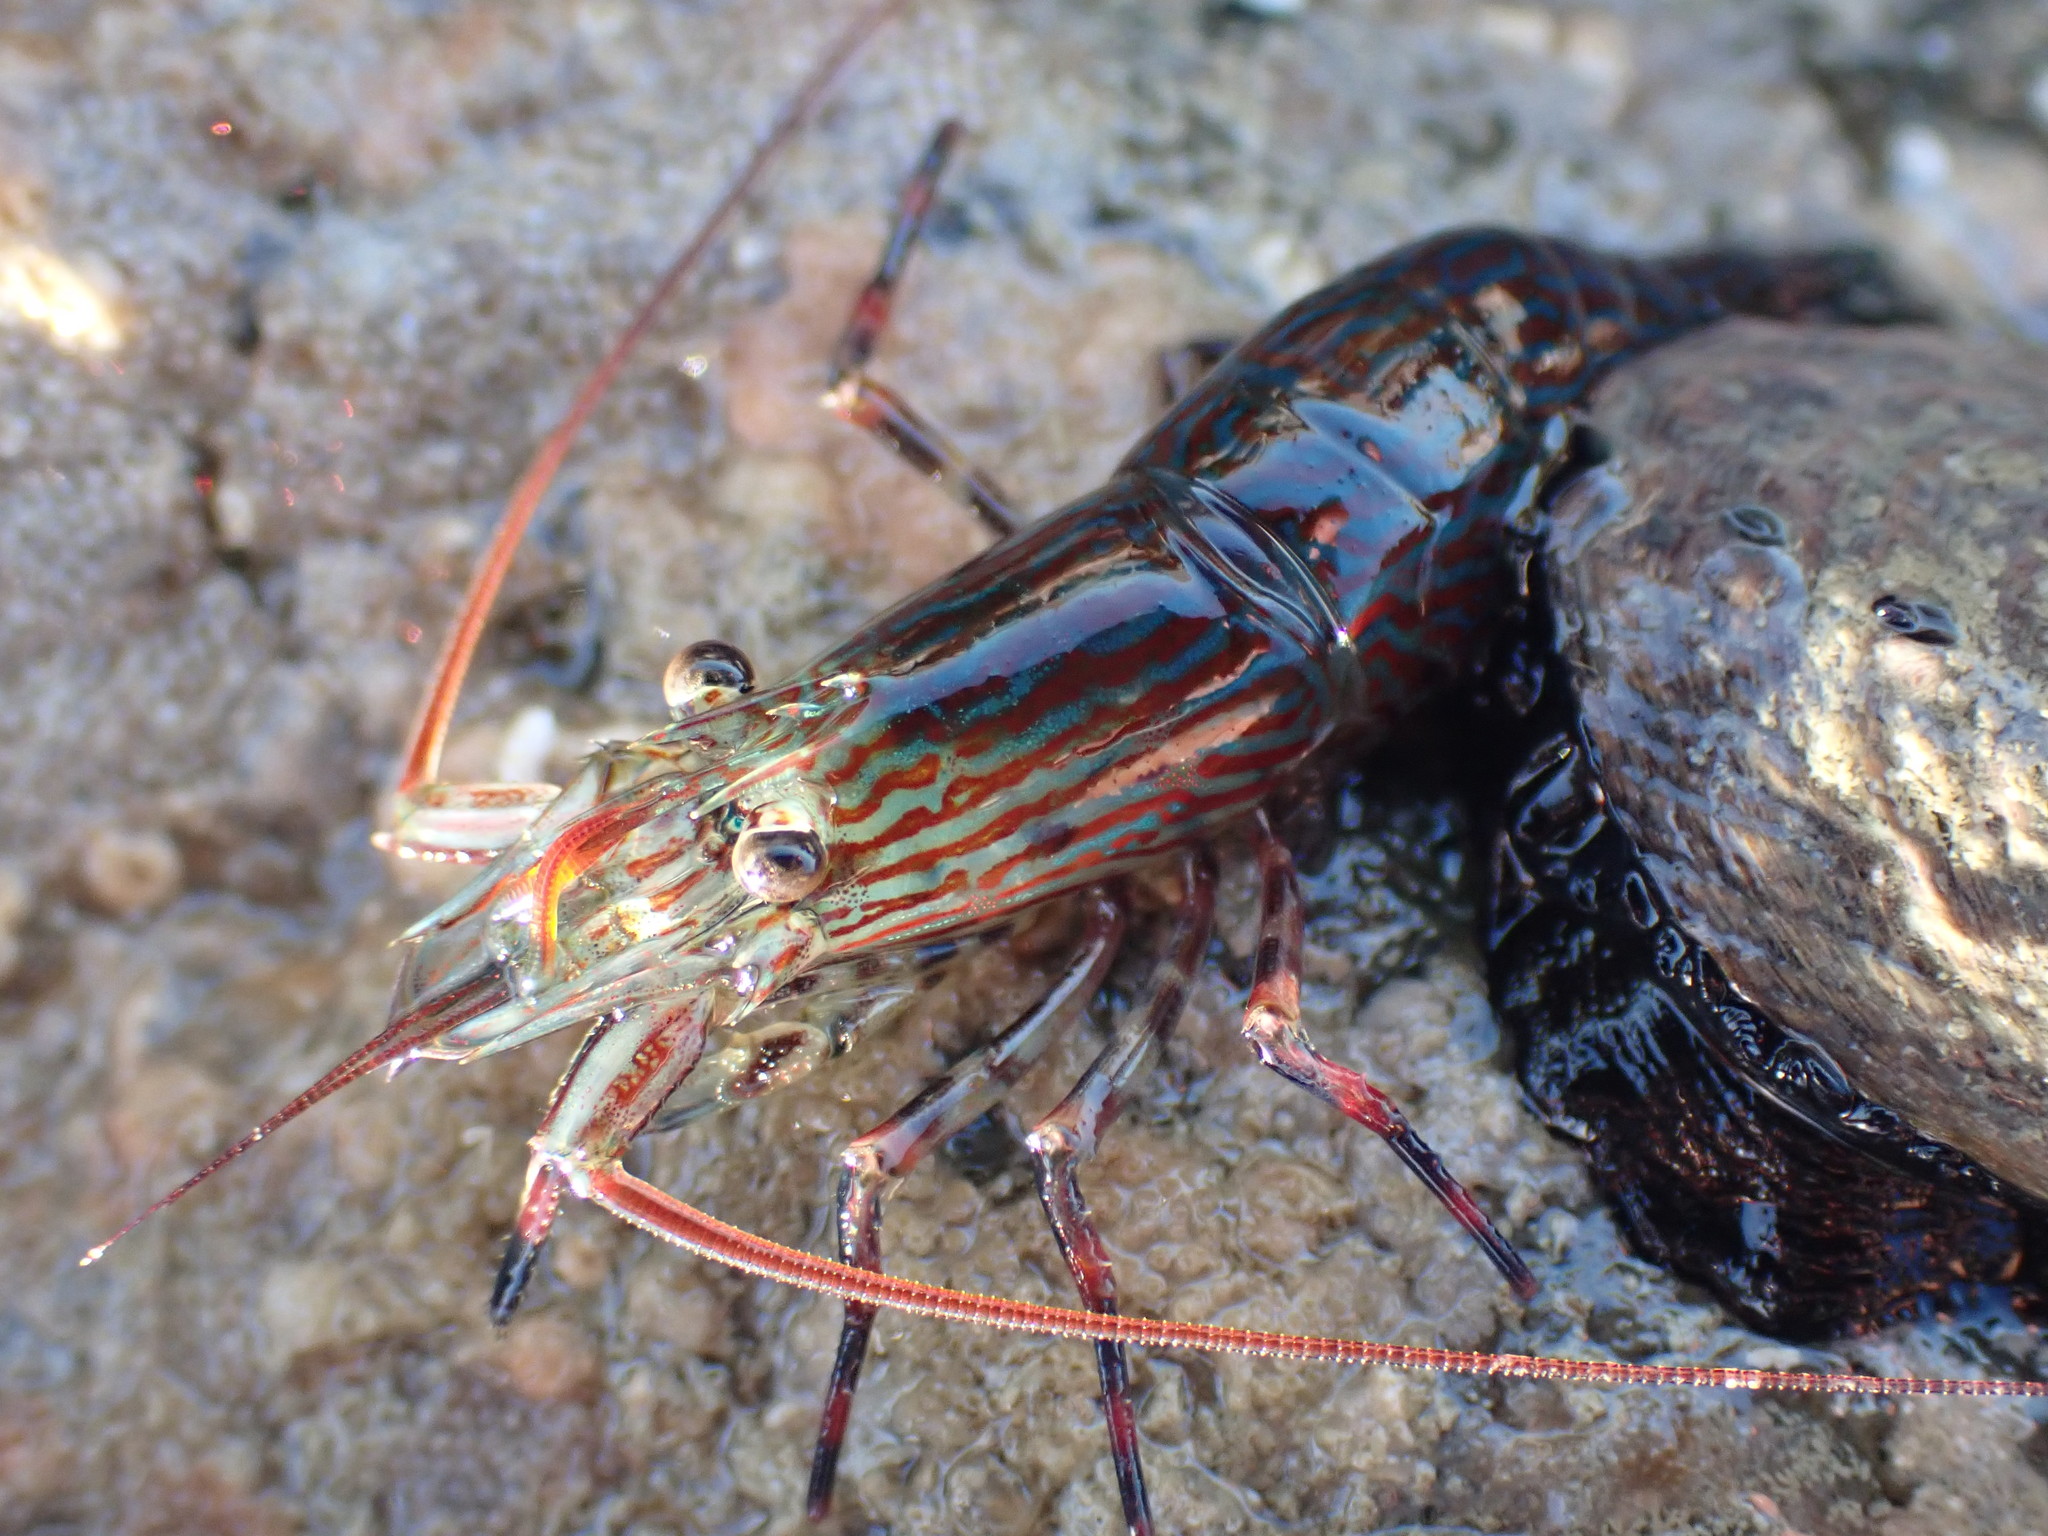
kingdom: Animalia
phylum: Arthropoda
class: Malacostraca
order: Decapoda
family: Hippolytidae
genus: Alope
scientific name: Alope spinifrons
